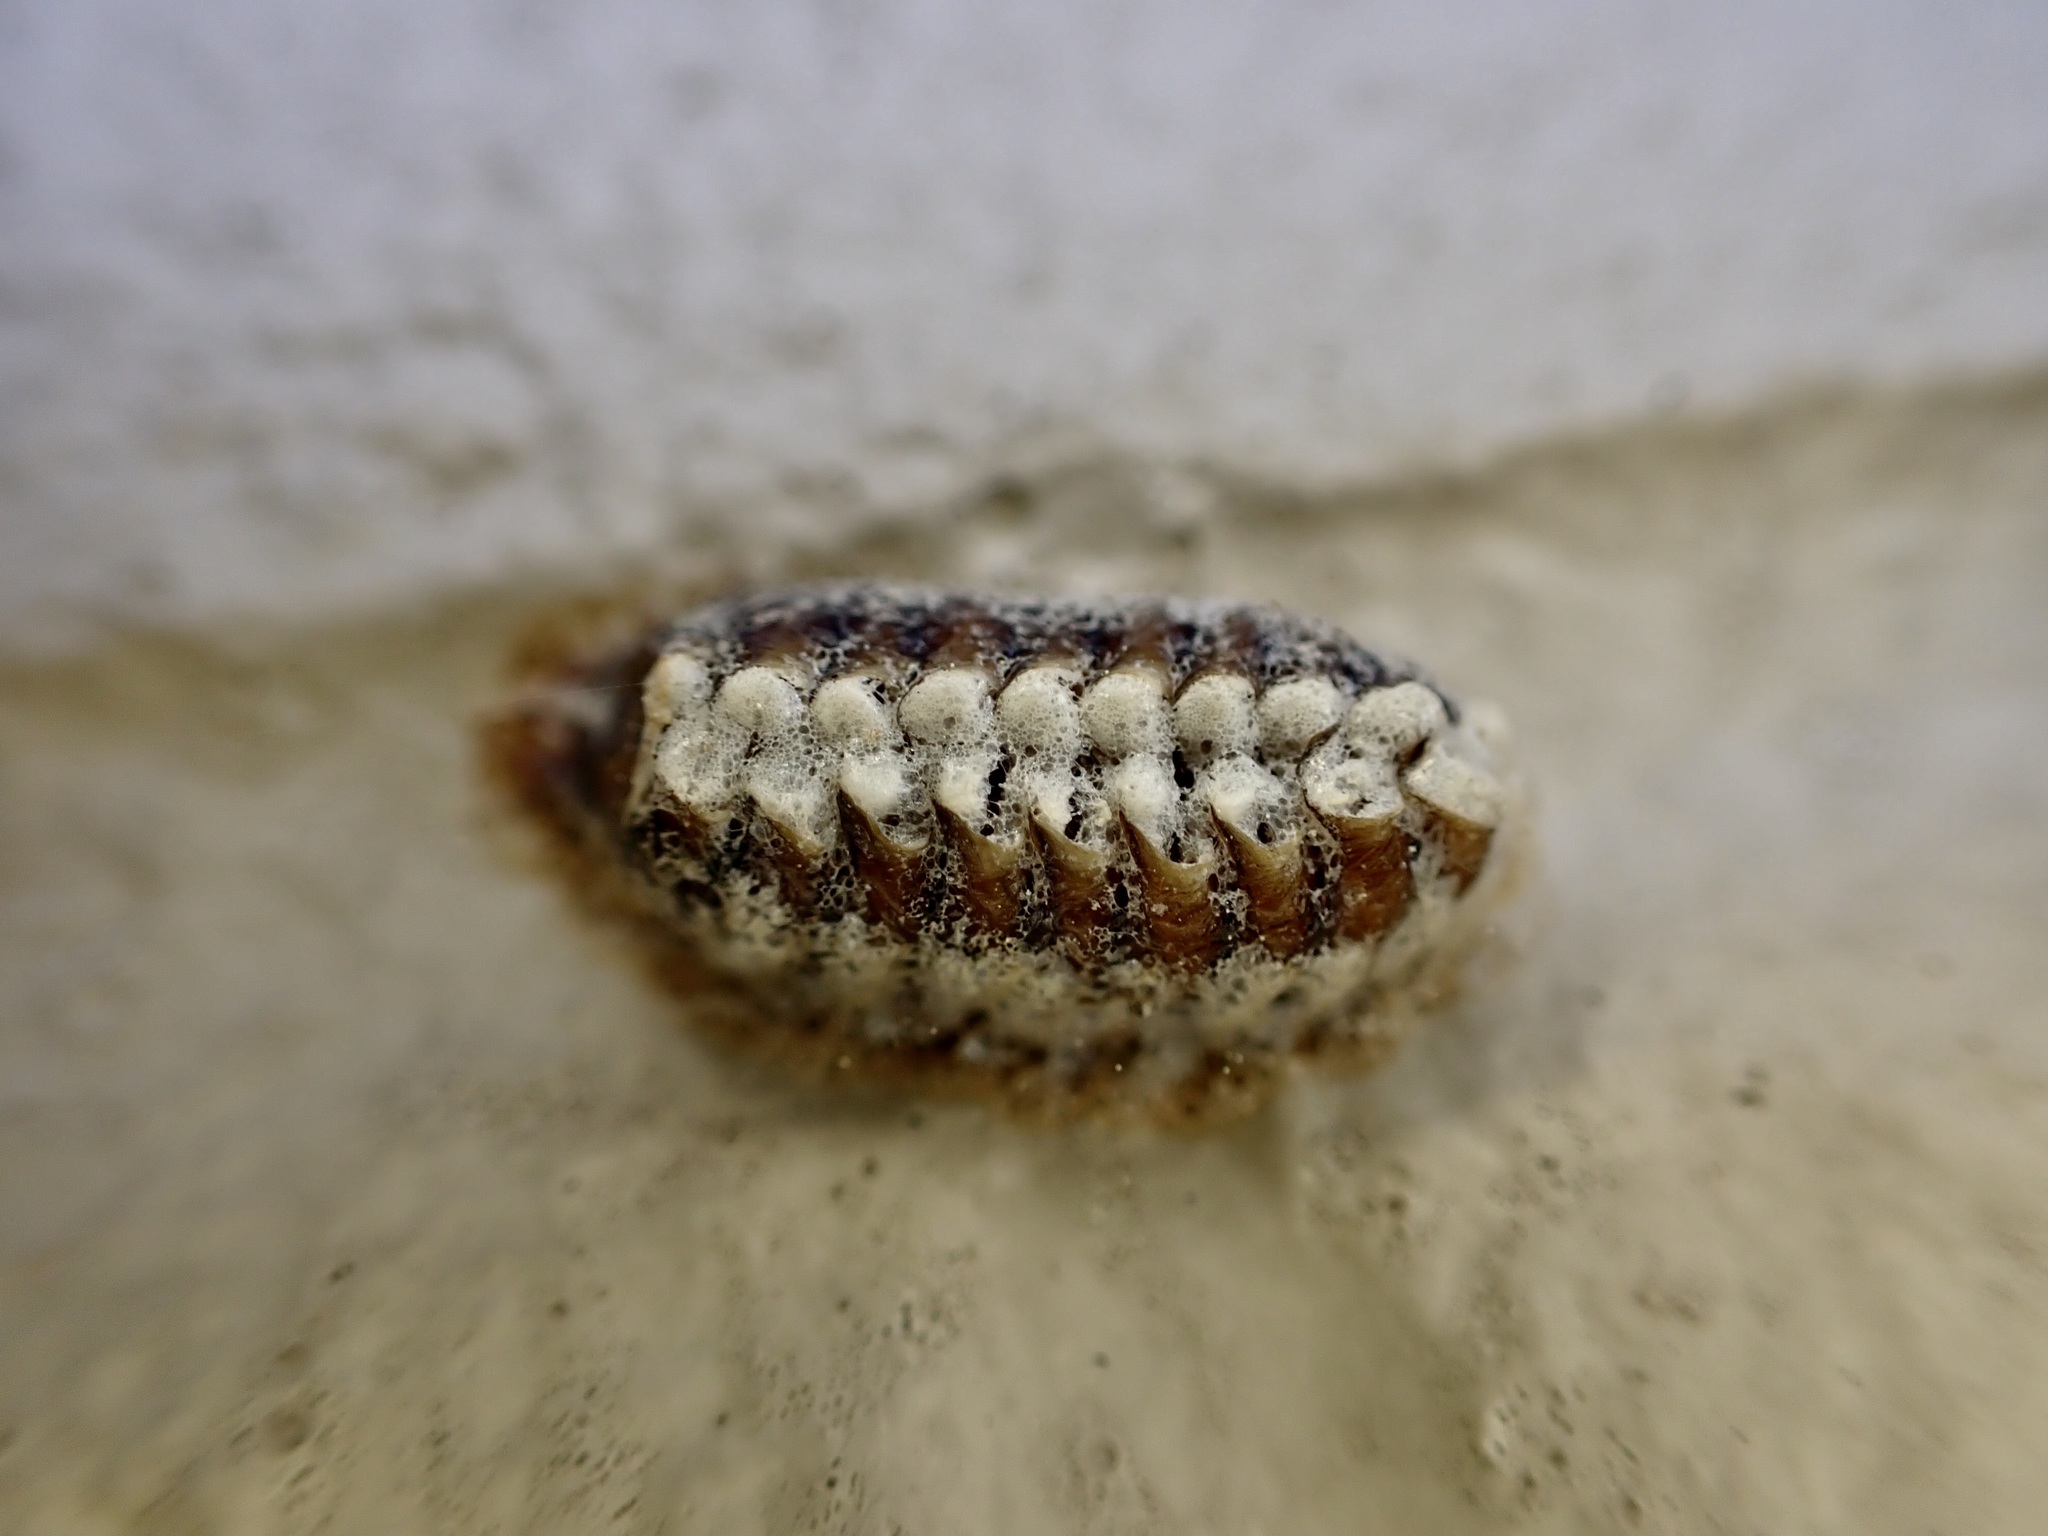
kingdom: Animalia
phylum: Arthropoda
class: Insecta
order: Mantodea
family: Mantidae
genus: Orthodera
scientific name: Orthodera novaezealandiae
